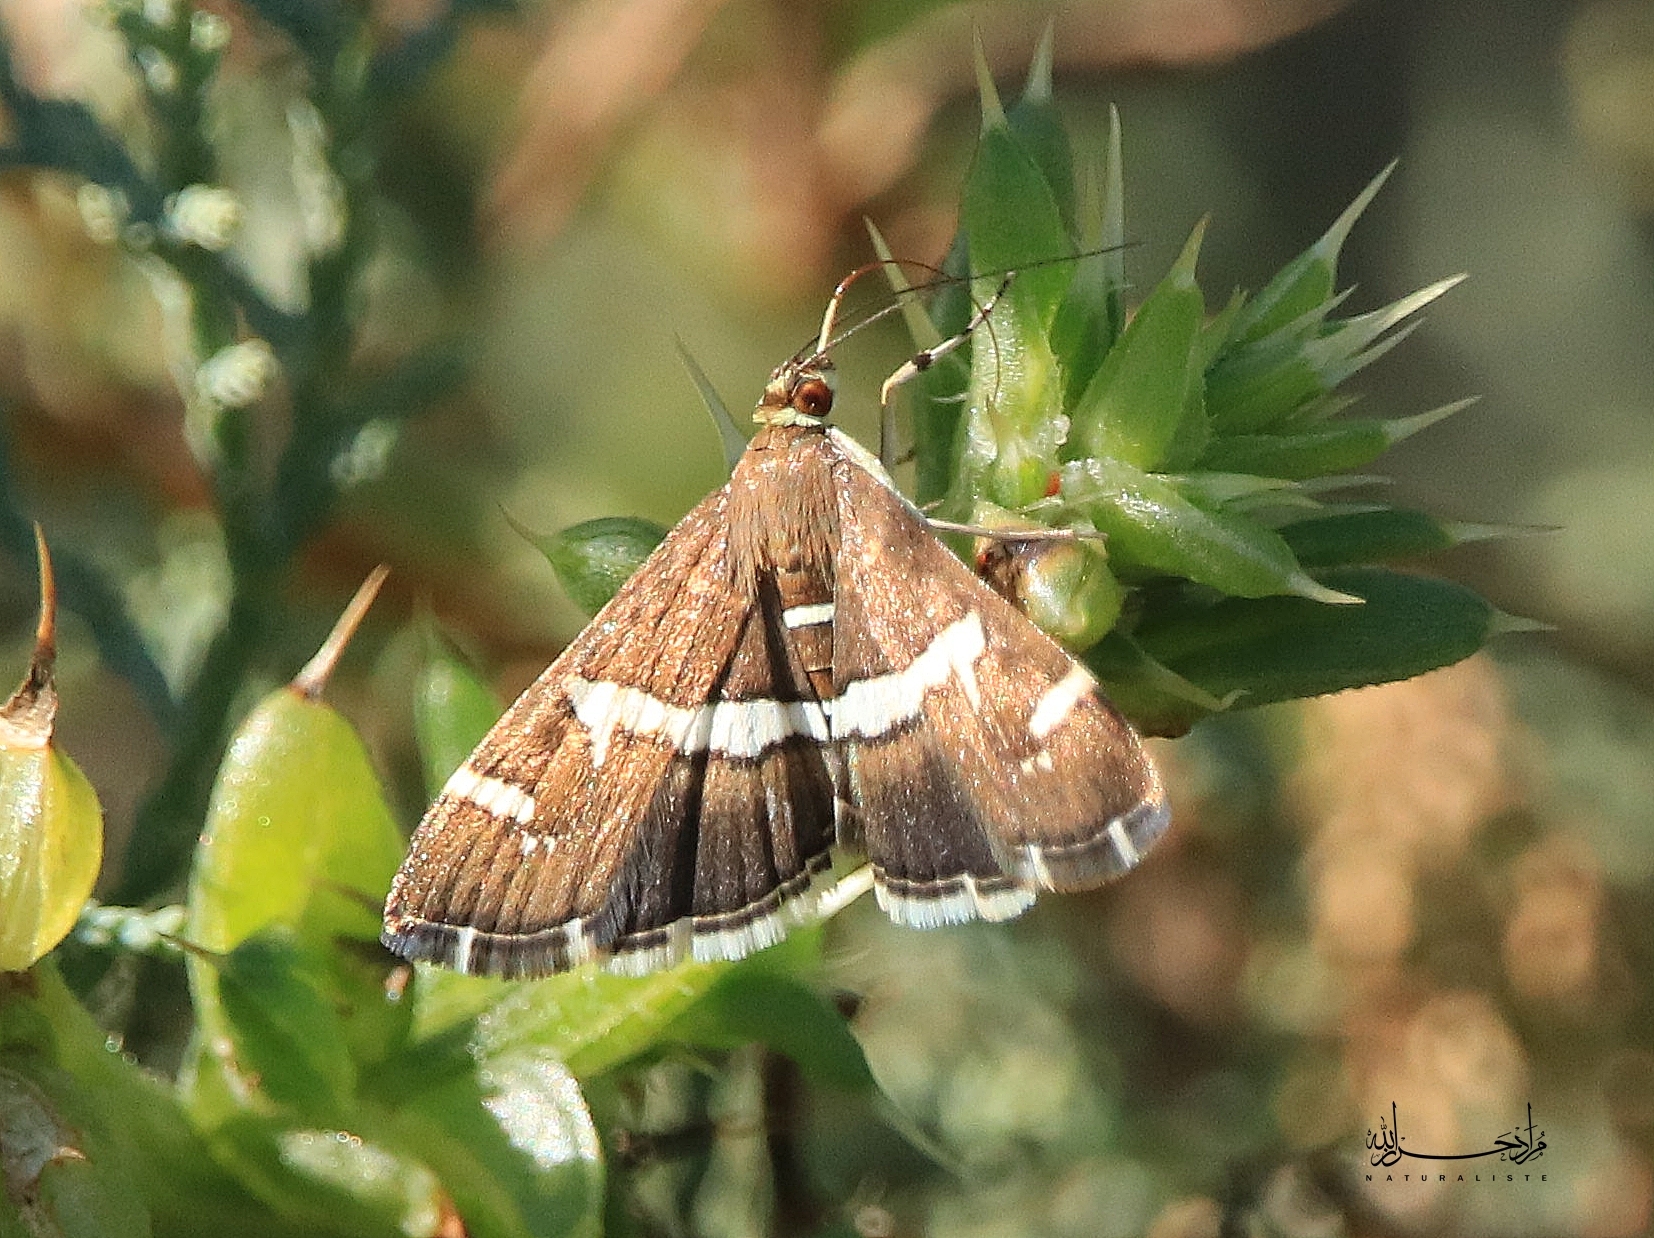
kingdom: Animalia
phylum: Arthropoda
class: Insecta
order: Lepidoptera
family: Crambidae
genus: Spoladea
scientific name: Spoladea recurvalis
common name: Beet webworm moth
